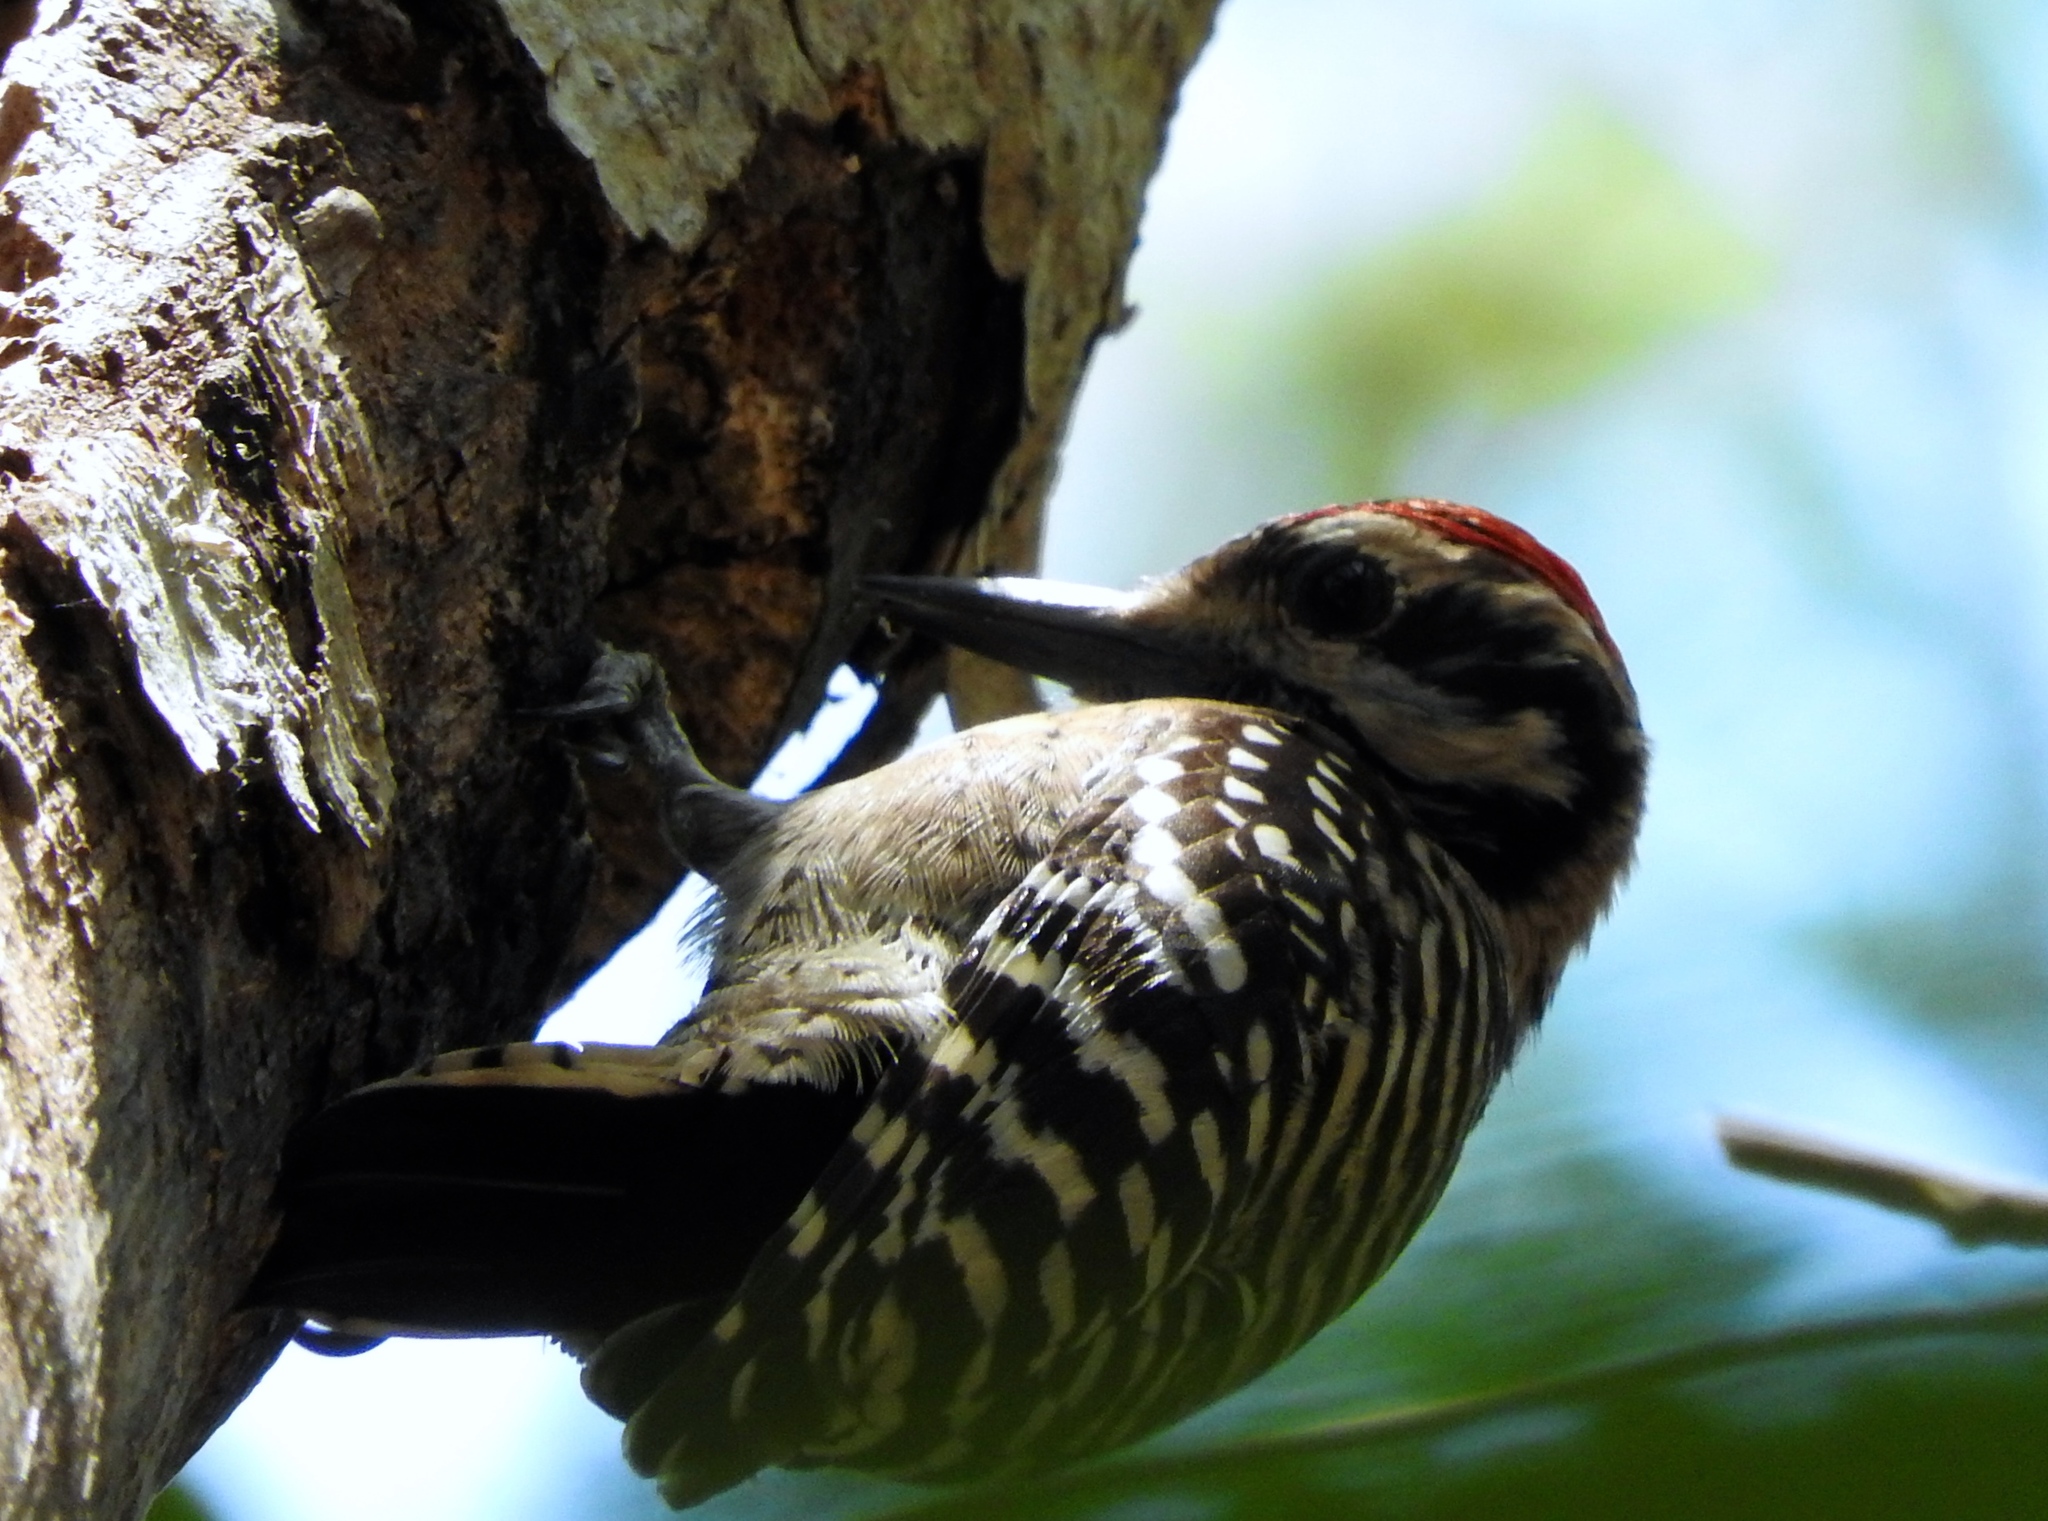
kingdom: Animalia
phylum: Chordata
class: Aves
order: Piciformes
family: Picidae
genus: Dryobates
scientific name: Dryobates scalaris
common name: Ladder-backed woodpecker
